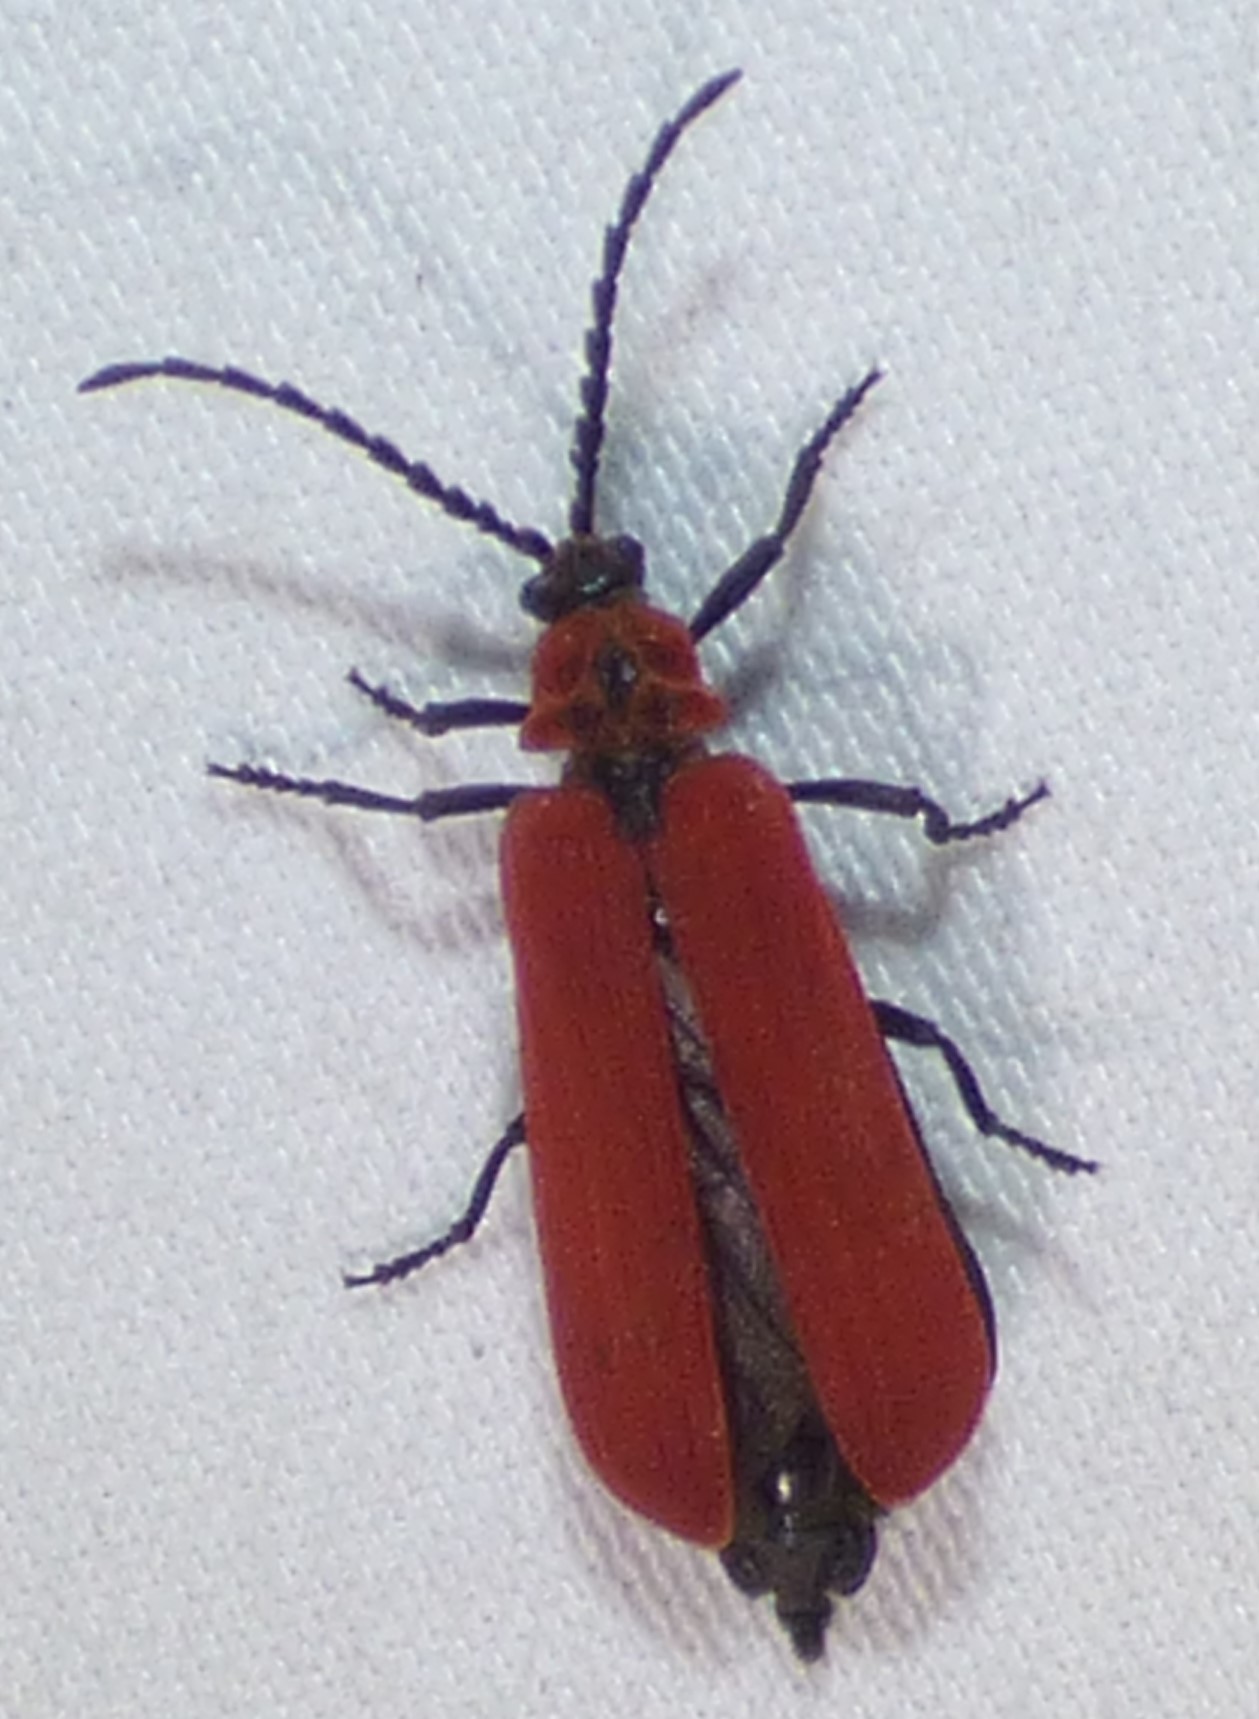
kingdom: Animalia
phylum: Arthropoda
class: Insecta
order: Coleoptera
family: Lycidae
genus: Dictyoptera
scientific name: Dictyoptera aurora
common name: Golden net-winged beetle
